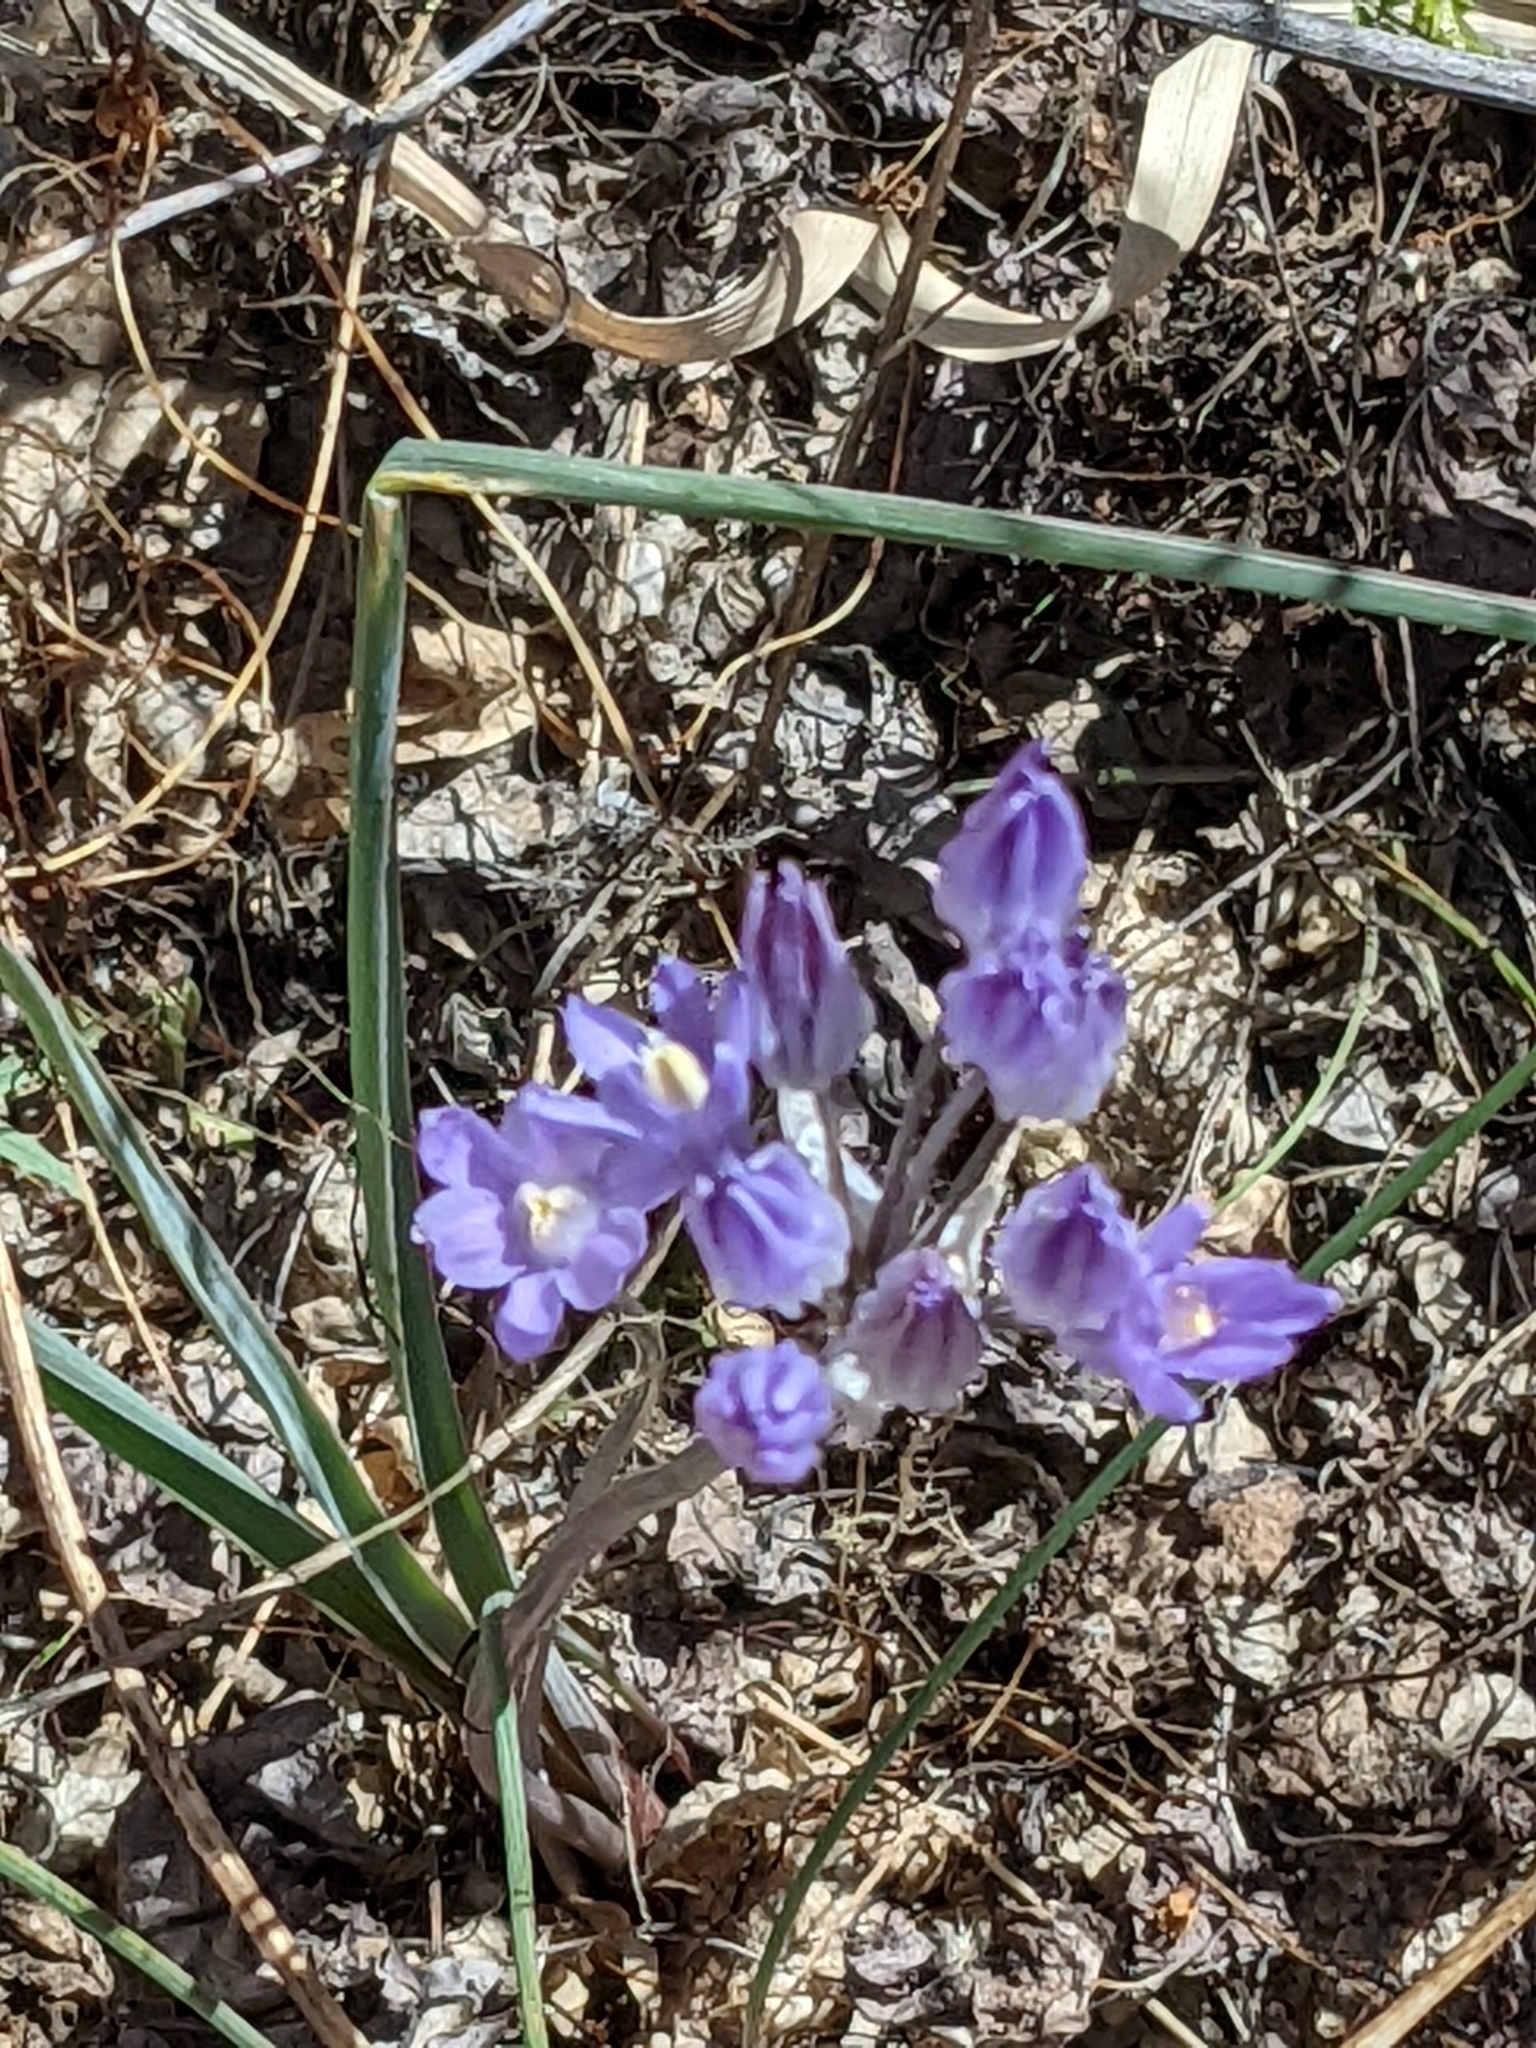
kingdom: Plantae
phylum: Tracheophyta
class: Liliopsida
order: Asparagales
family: Asparagaceae
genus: Dipterostemon
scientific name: Dipterostemon capitatus
